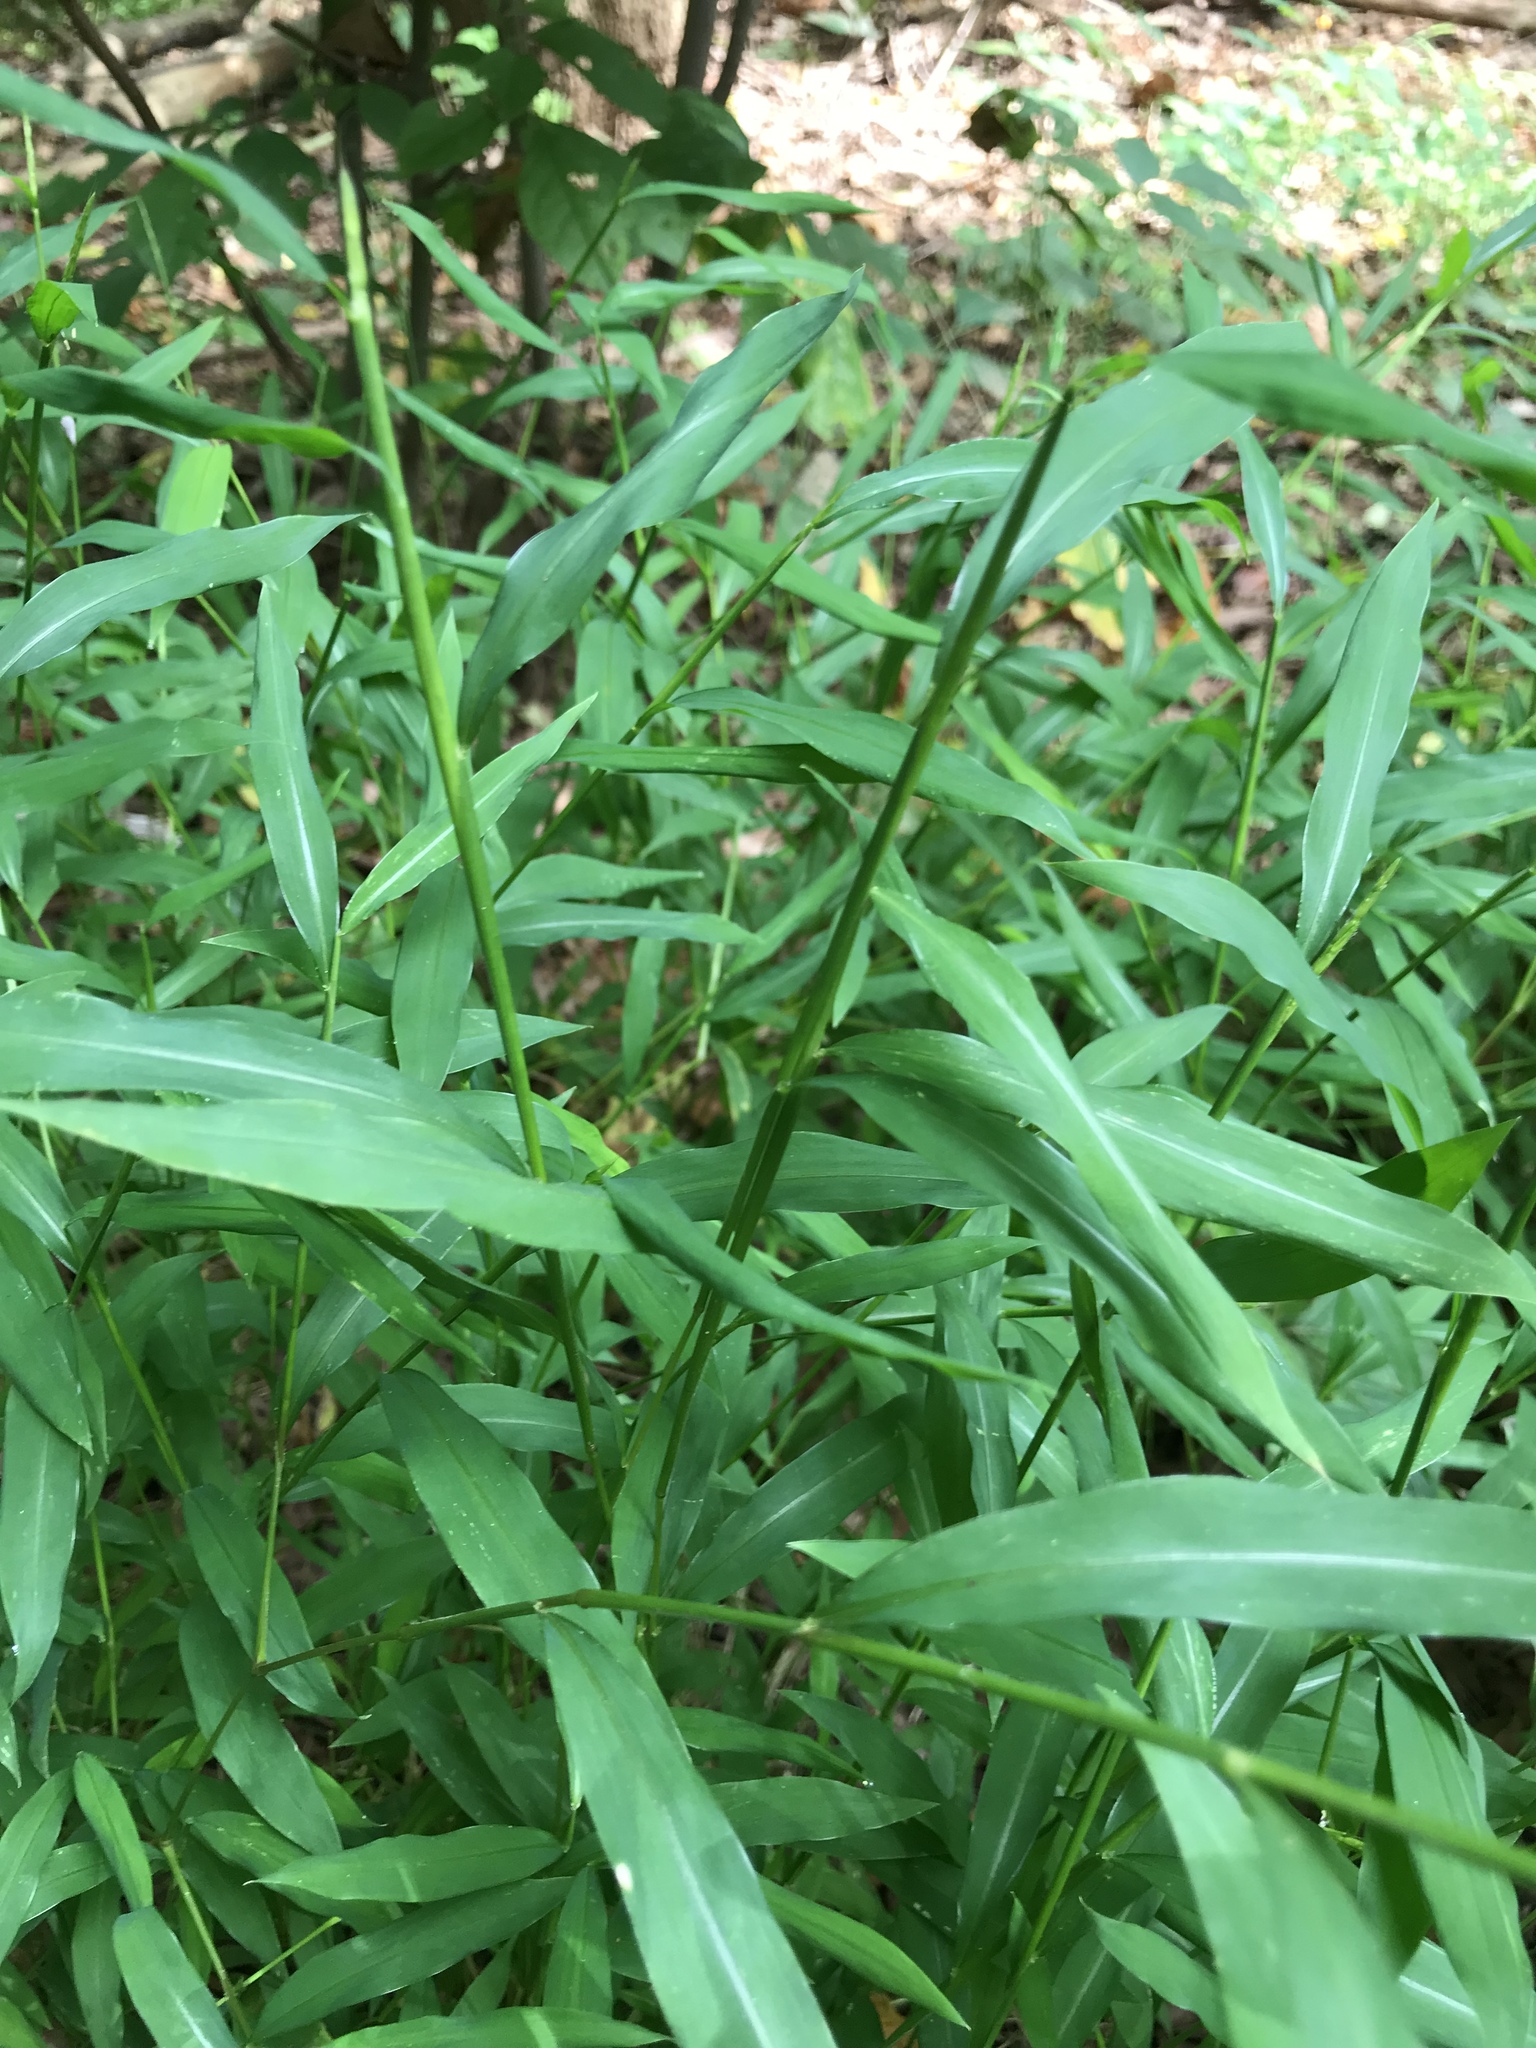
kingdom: Plantae
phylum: Tracheophyta
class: Liliopsida
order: Poales
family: Poaceae
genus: Microstegium
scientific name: Microstegium vimineum
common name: Japanese stiltgrass
